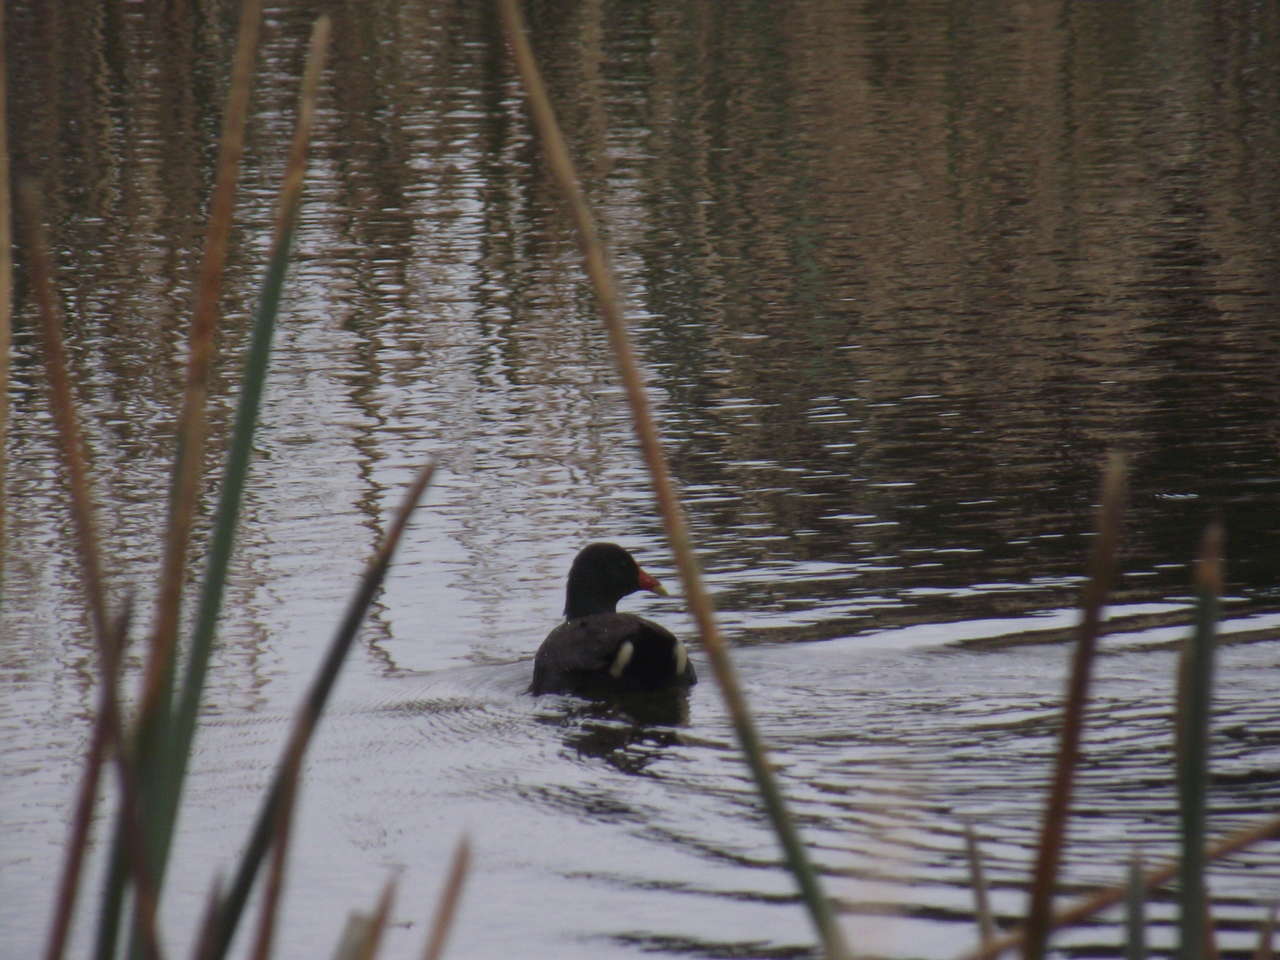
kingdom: Animalia
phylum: Chordata
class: Aves
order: Gruiformes
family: Rallidae
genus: Gallinula
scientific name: Gallinula tenebrosa
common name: Dusky moorhen
